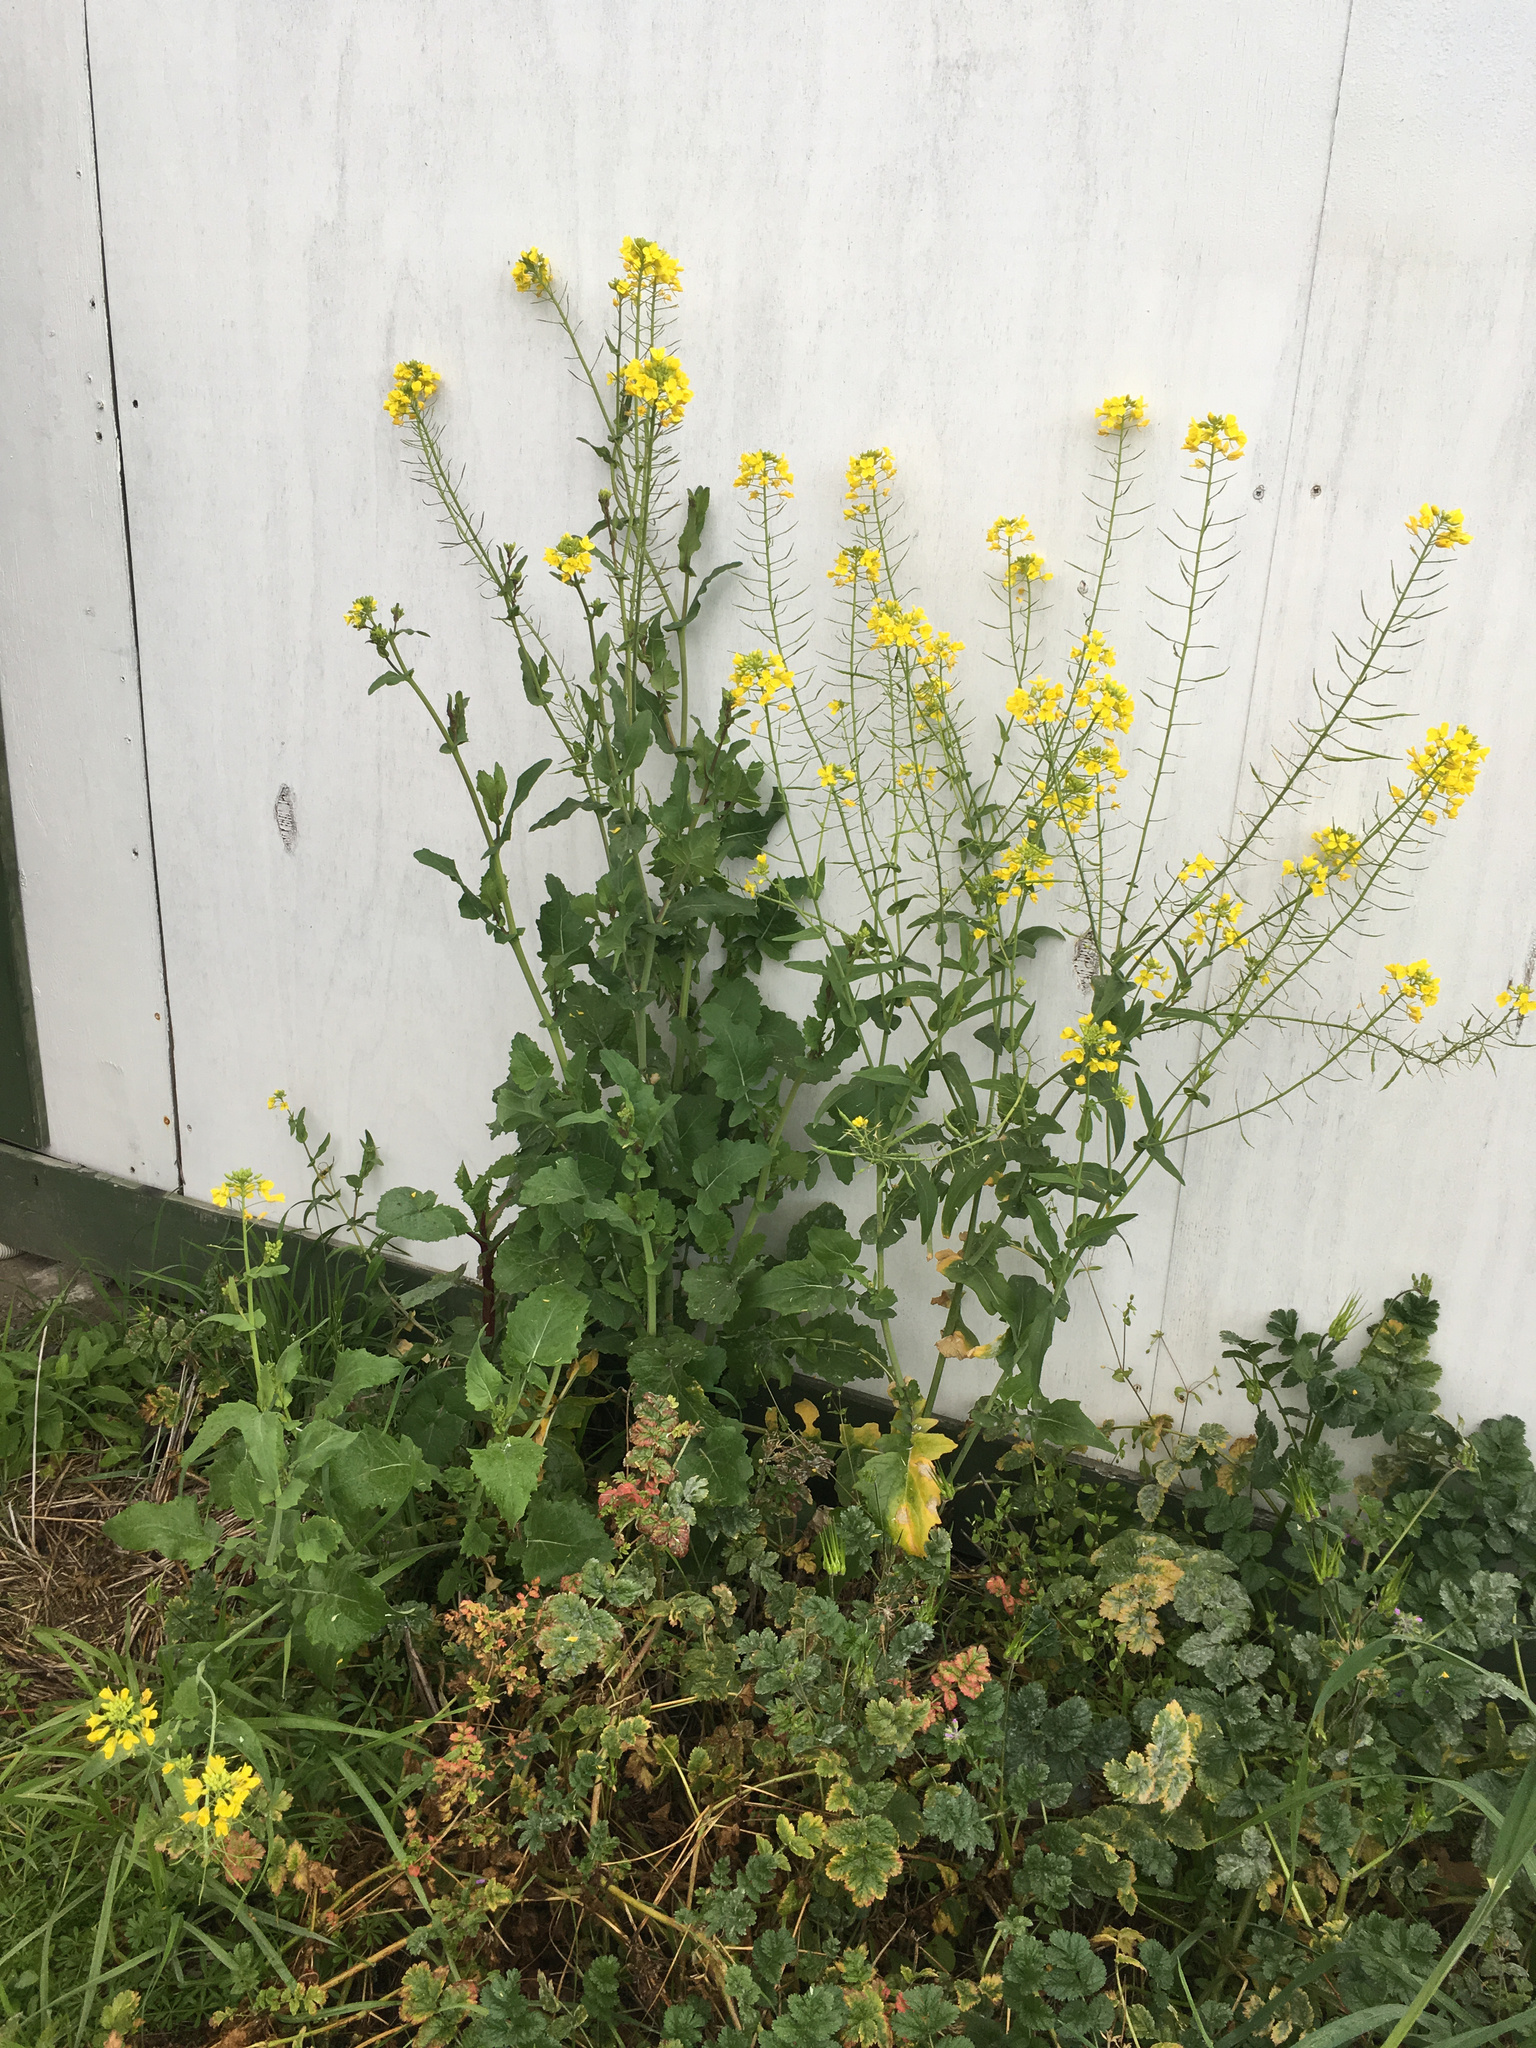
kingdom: Plantae
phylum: Tracheophyta
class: Magnoliopsida
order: Brassicales
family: Brassicaceae
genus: Brassica
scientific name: Brassica rapa
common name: Field mustard
